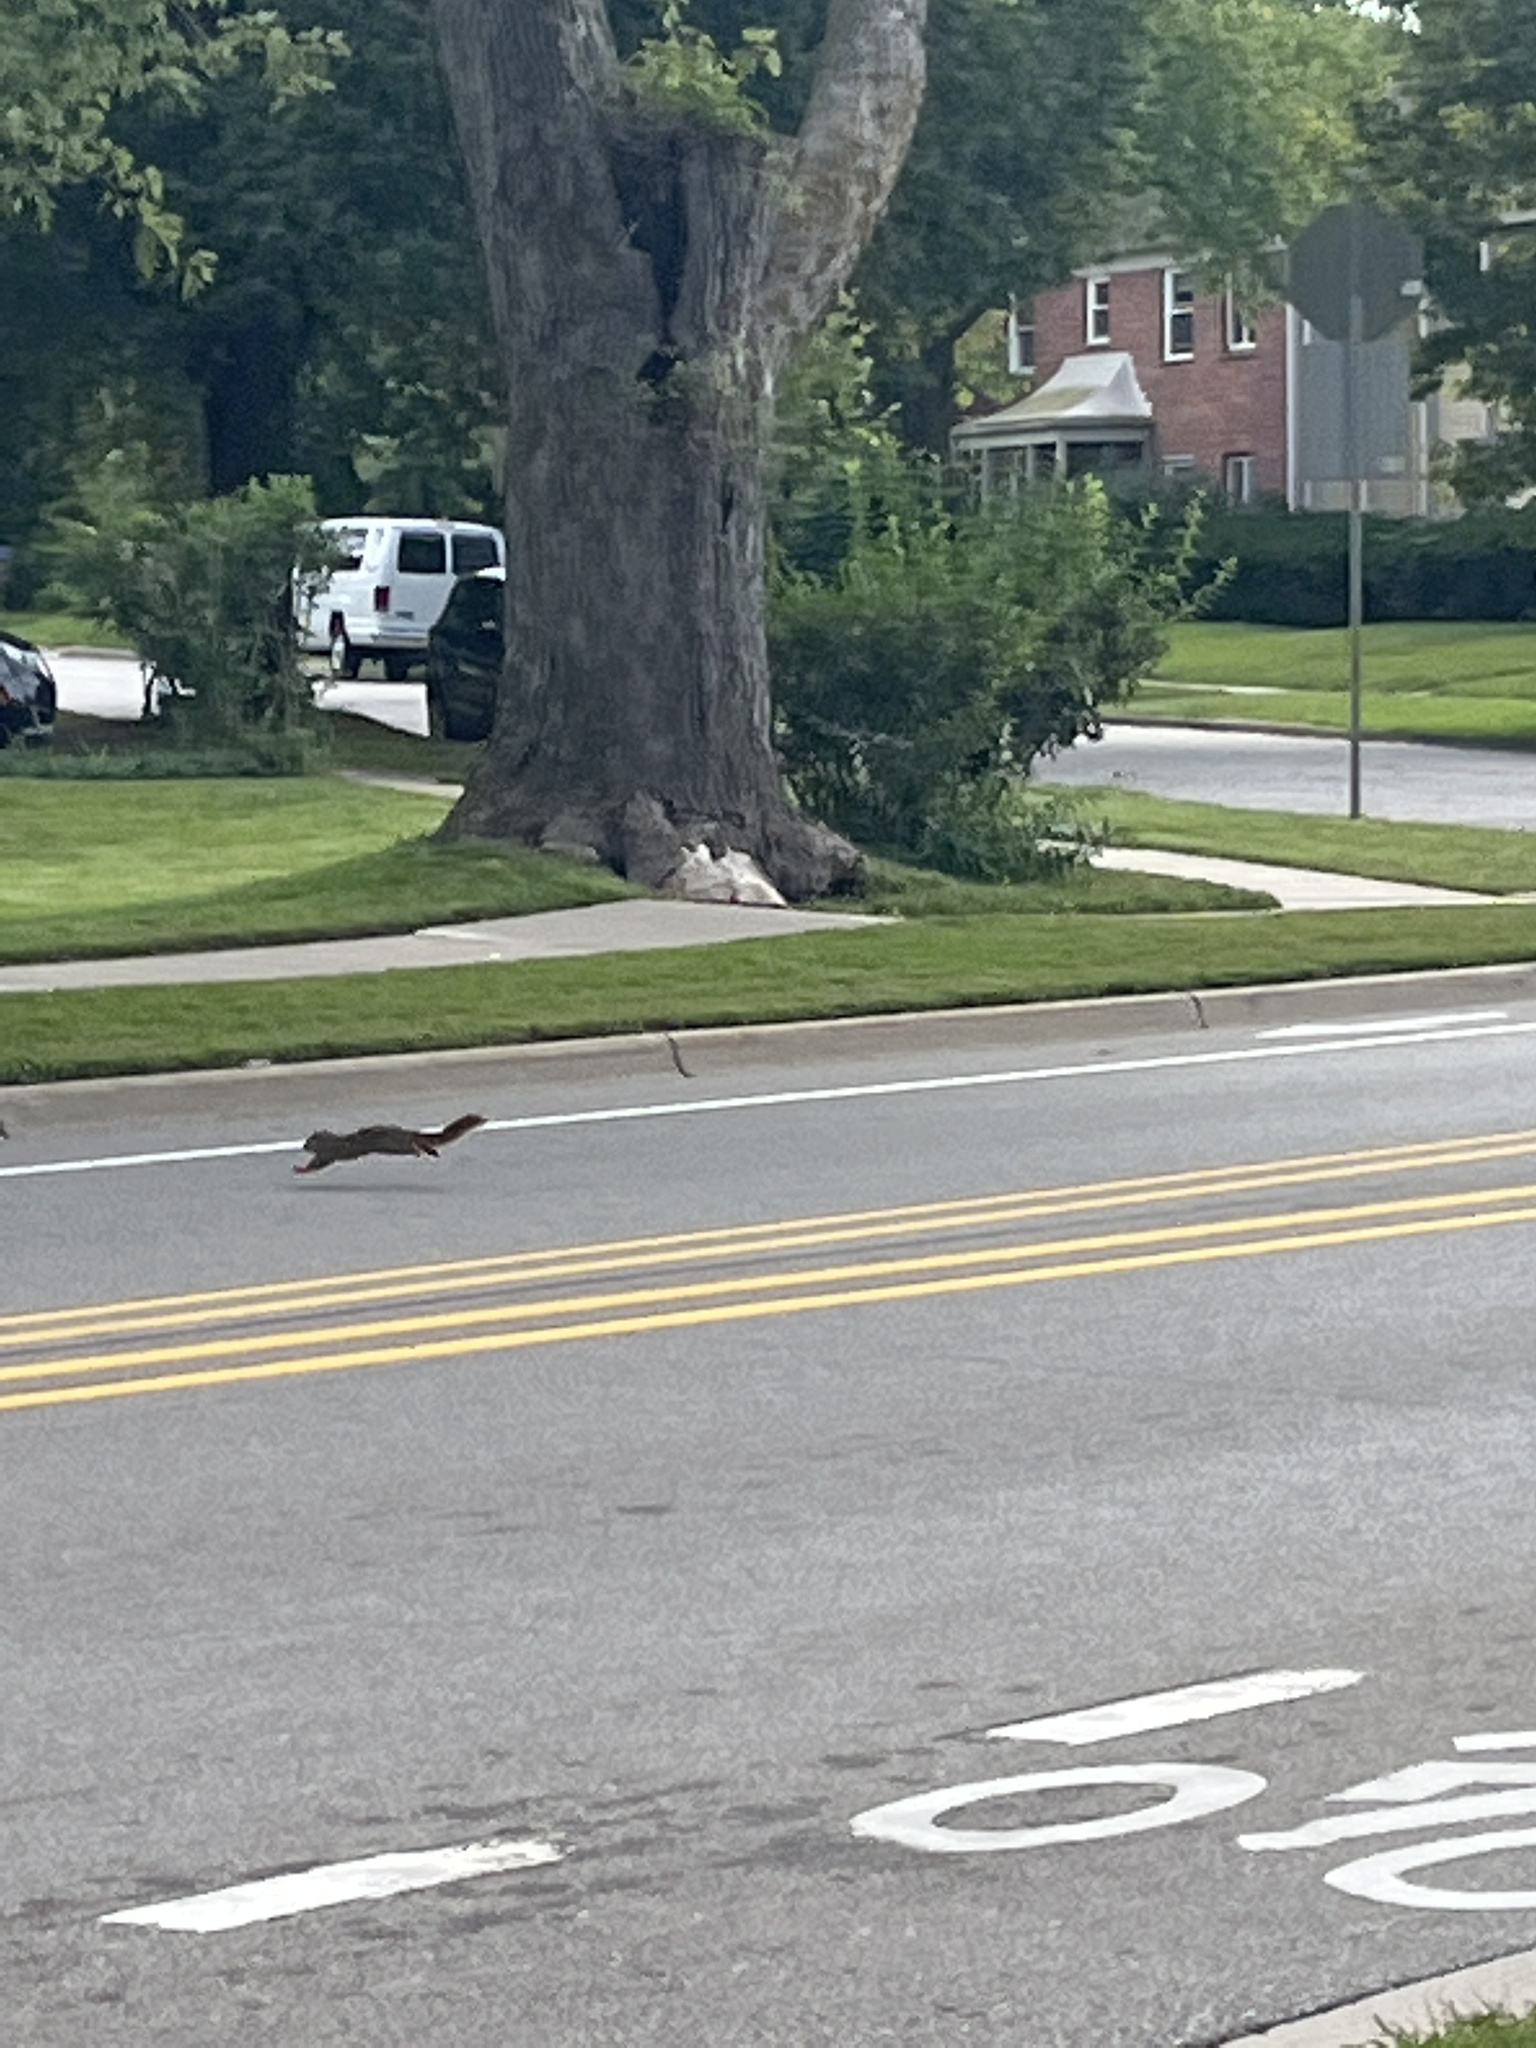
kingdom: Animalia
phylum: Chordata
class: Mammalia
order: Rodentia
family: Sciuridae
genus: Sciurus
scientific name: Sciurus niger
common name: Fox squirrel
